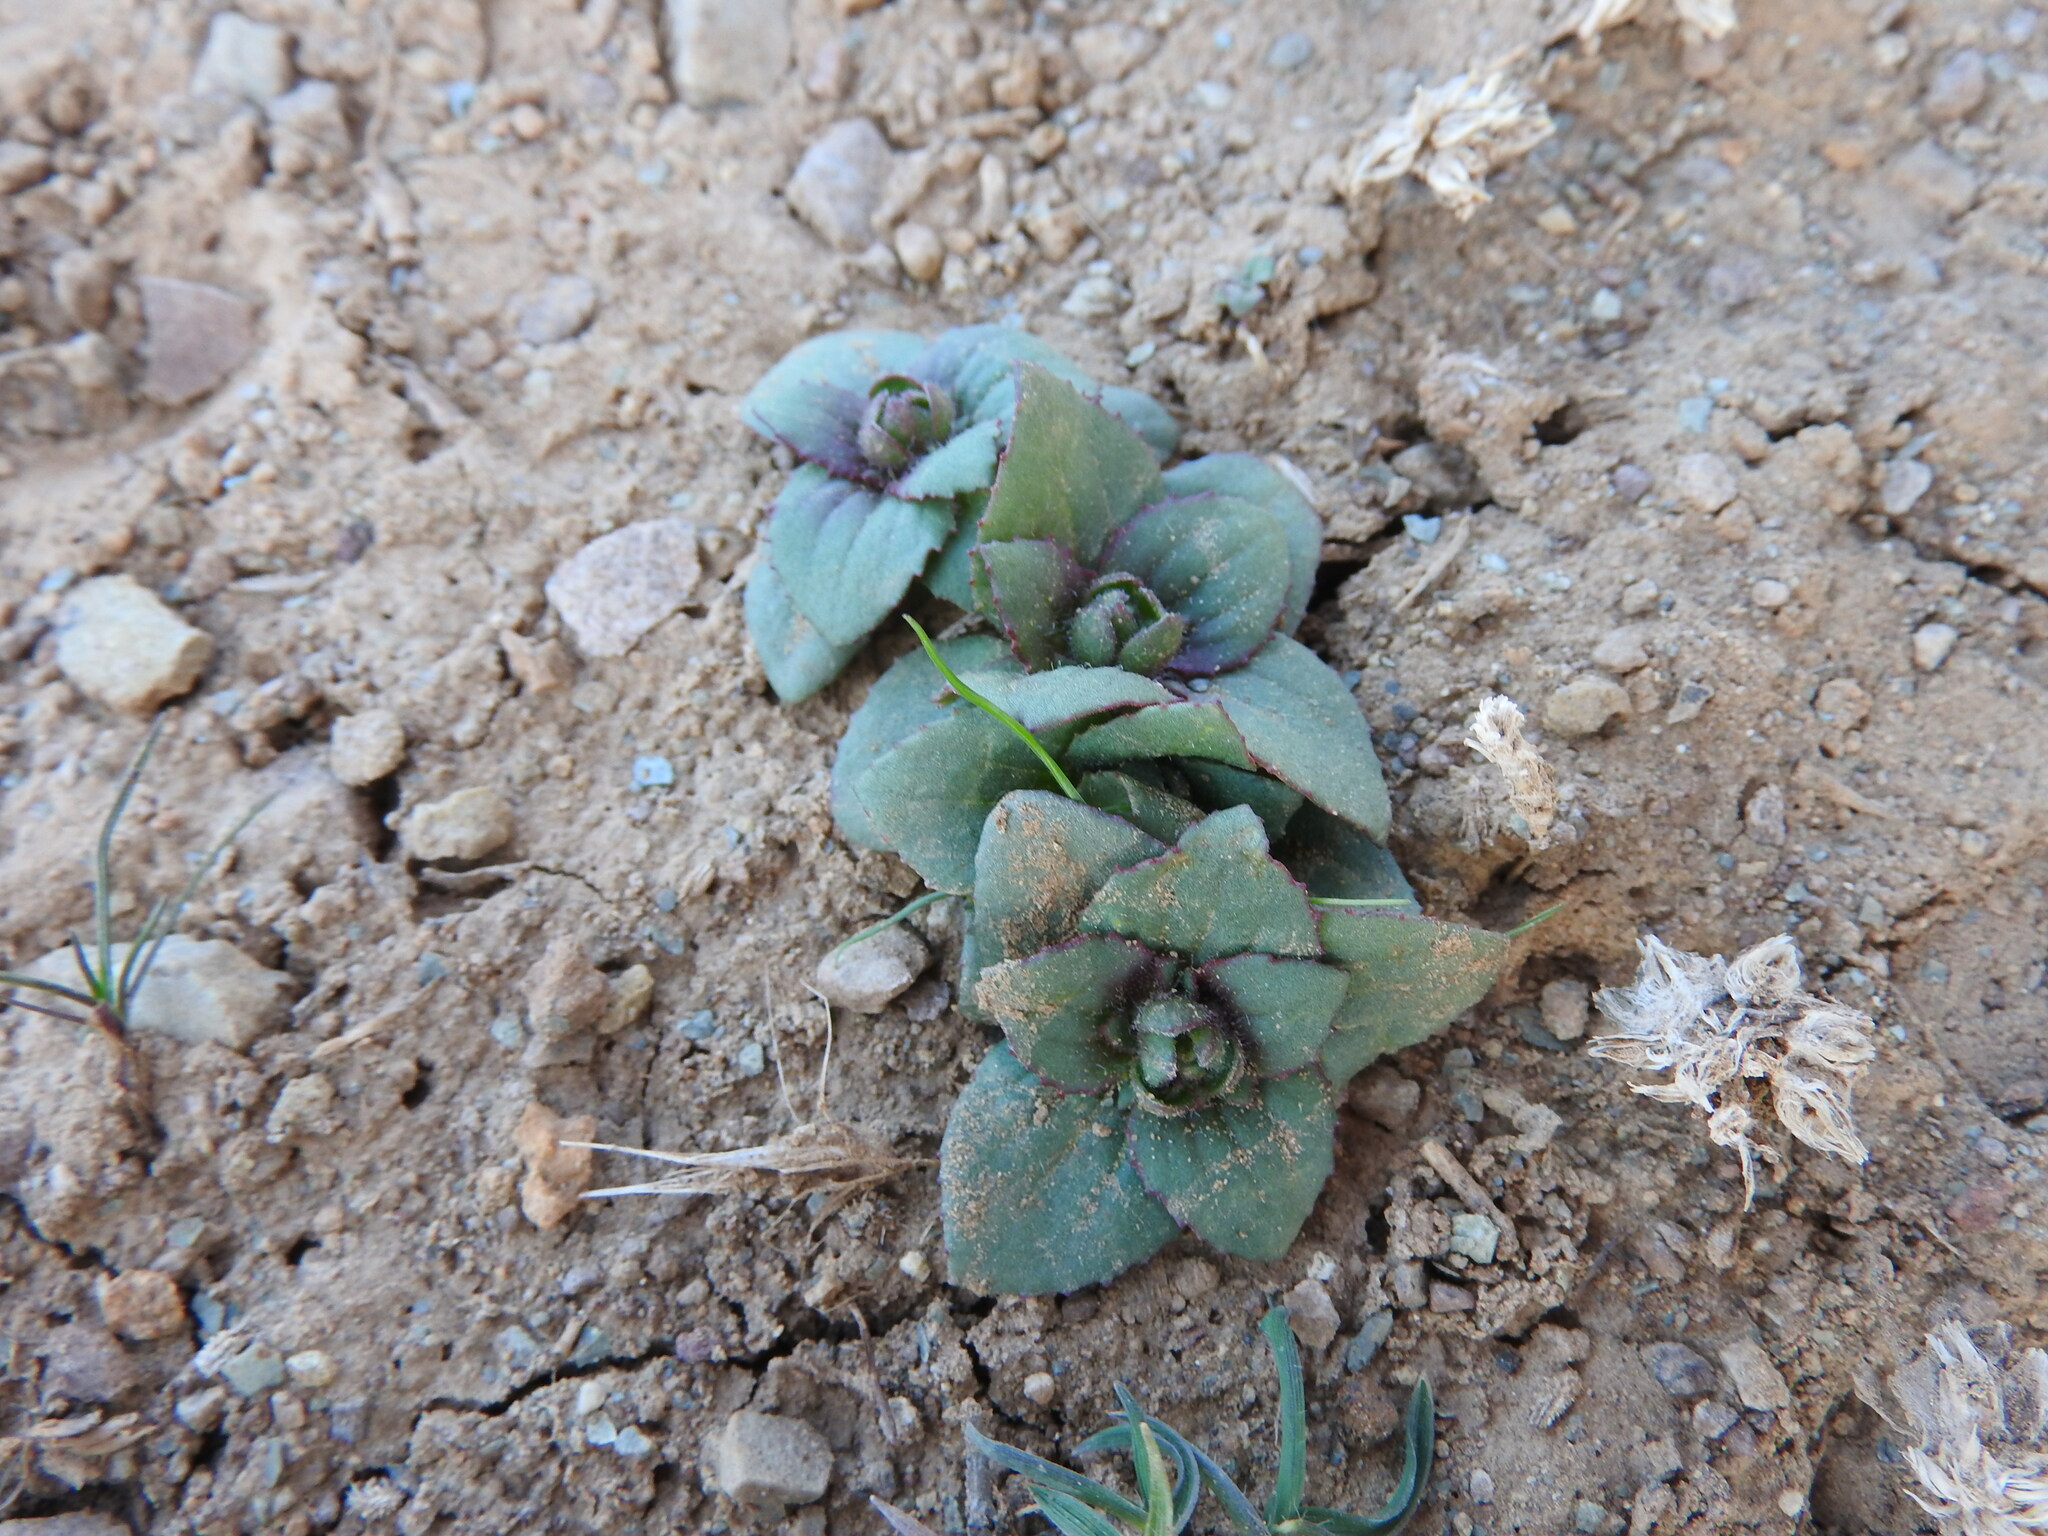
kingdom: Plantae
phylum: Tracheophyta
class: Magnoliopsida
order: Ericales
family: Primulaceae
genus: Androsace
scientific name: Androsace maxima
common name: Annual androsace
